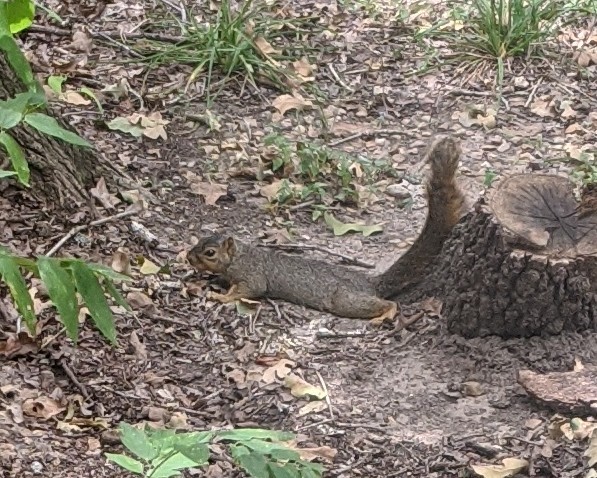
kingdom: Animalia
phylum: Chordata
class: Mammalia
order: Rodentia
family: Sciuridae
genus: Sciurus
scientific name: Sciurus niger
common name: Fox squirrel
